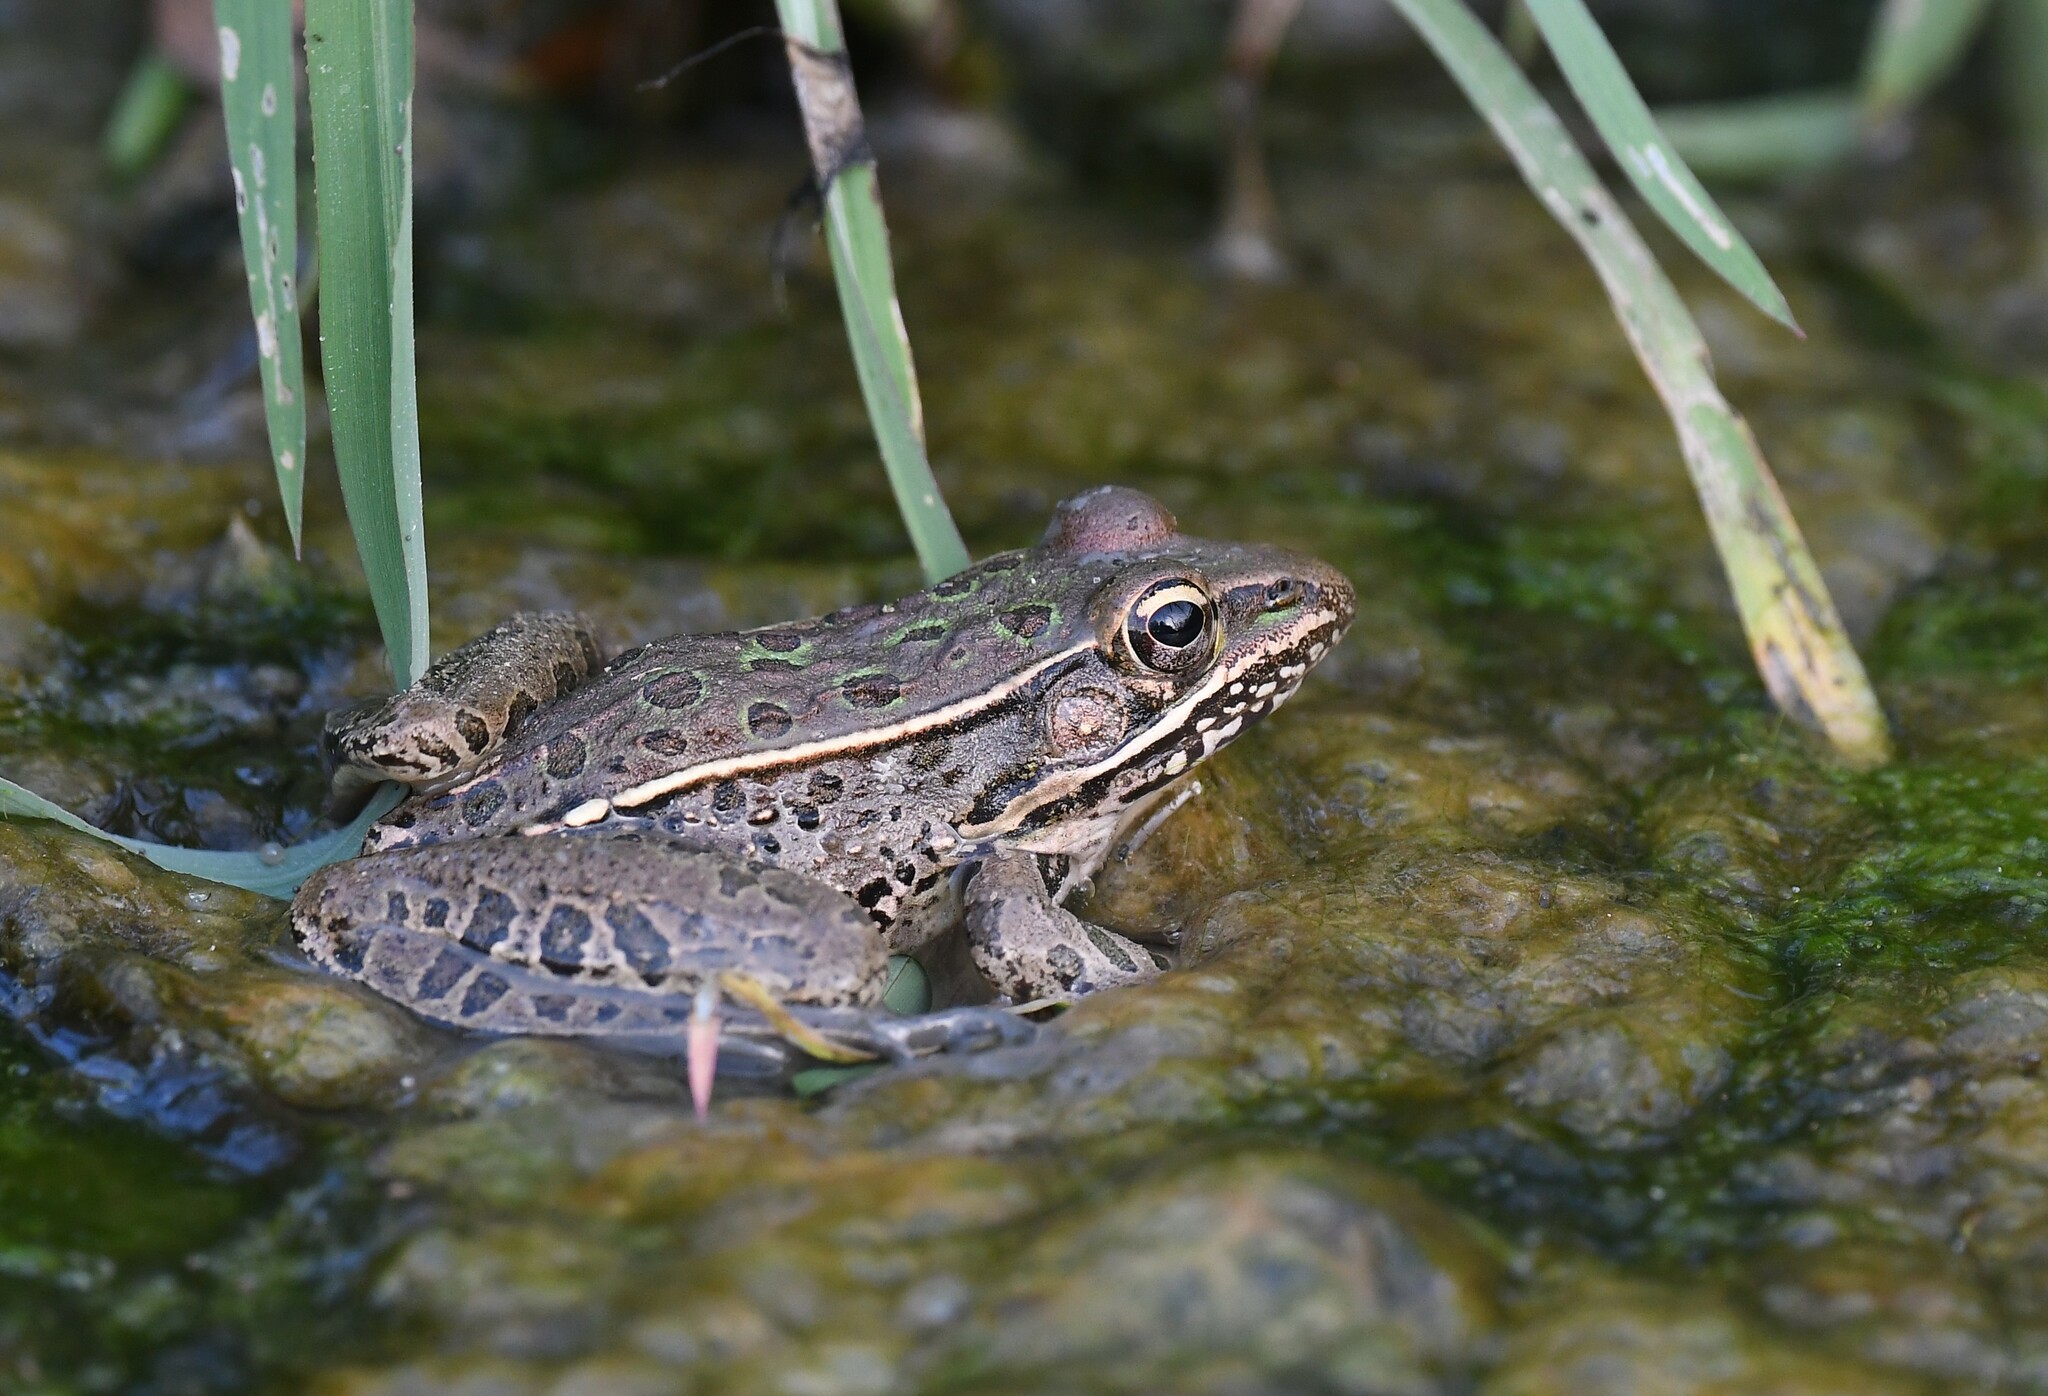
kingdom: Animalia
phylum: Chordata
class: Amphibia
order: Anura
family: Ranidae
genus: Lithobates
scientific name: Lithobates sphenocephalus
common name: Southern leopard frog
